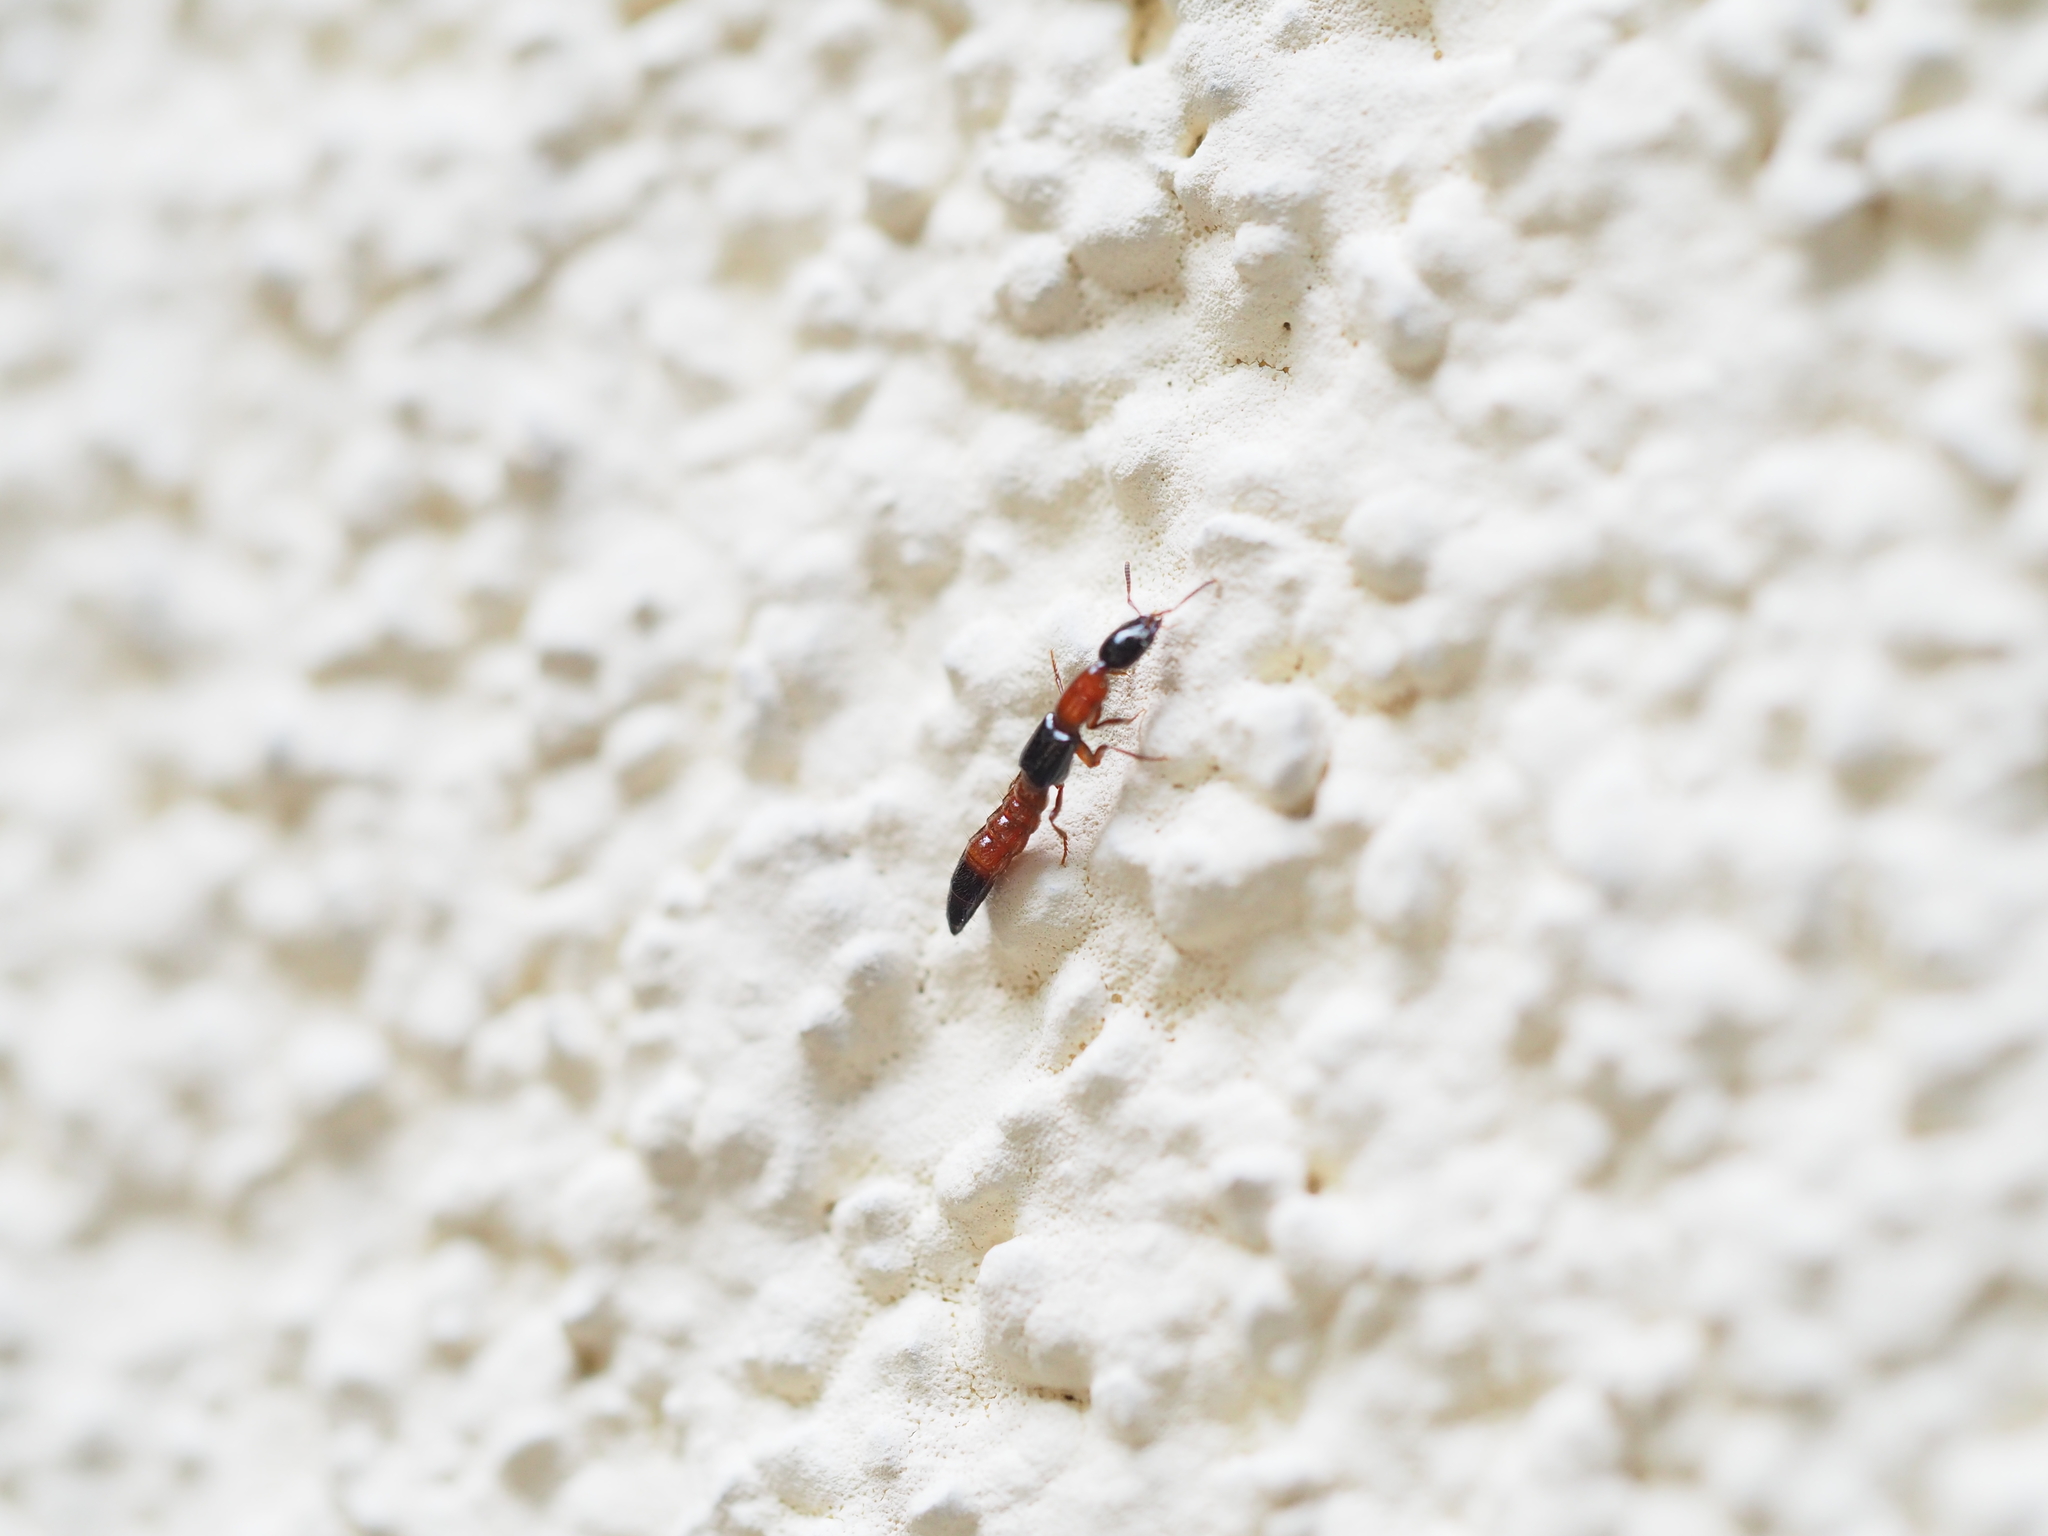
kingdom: Animalia
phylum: Arthropoda
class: Insecta
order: Coleoptera
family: Staphylinidae
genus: Milichilinus
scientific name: Milichilinus decorus
